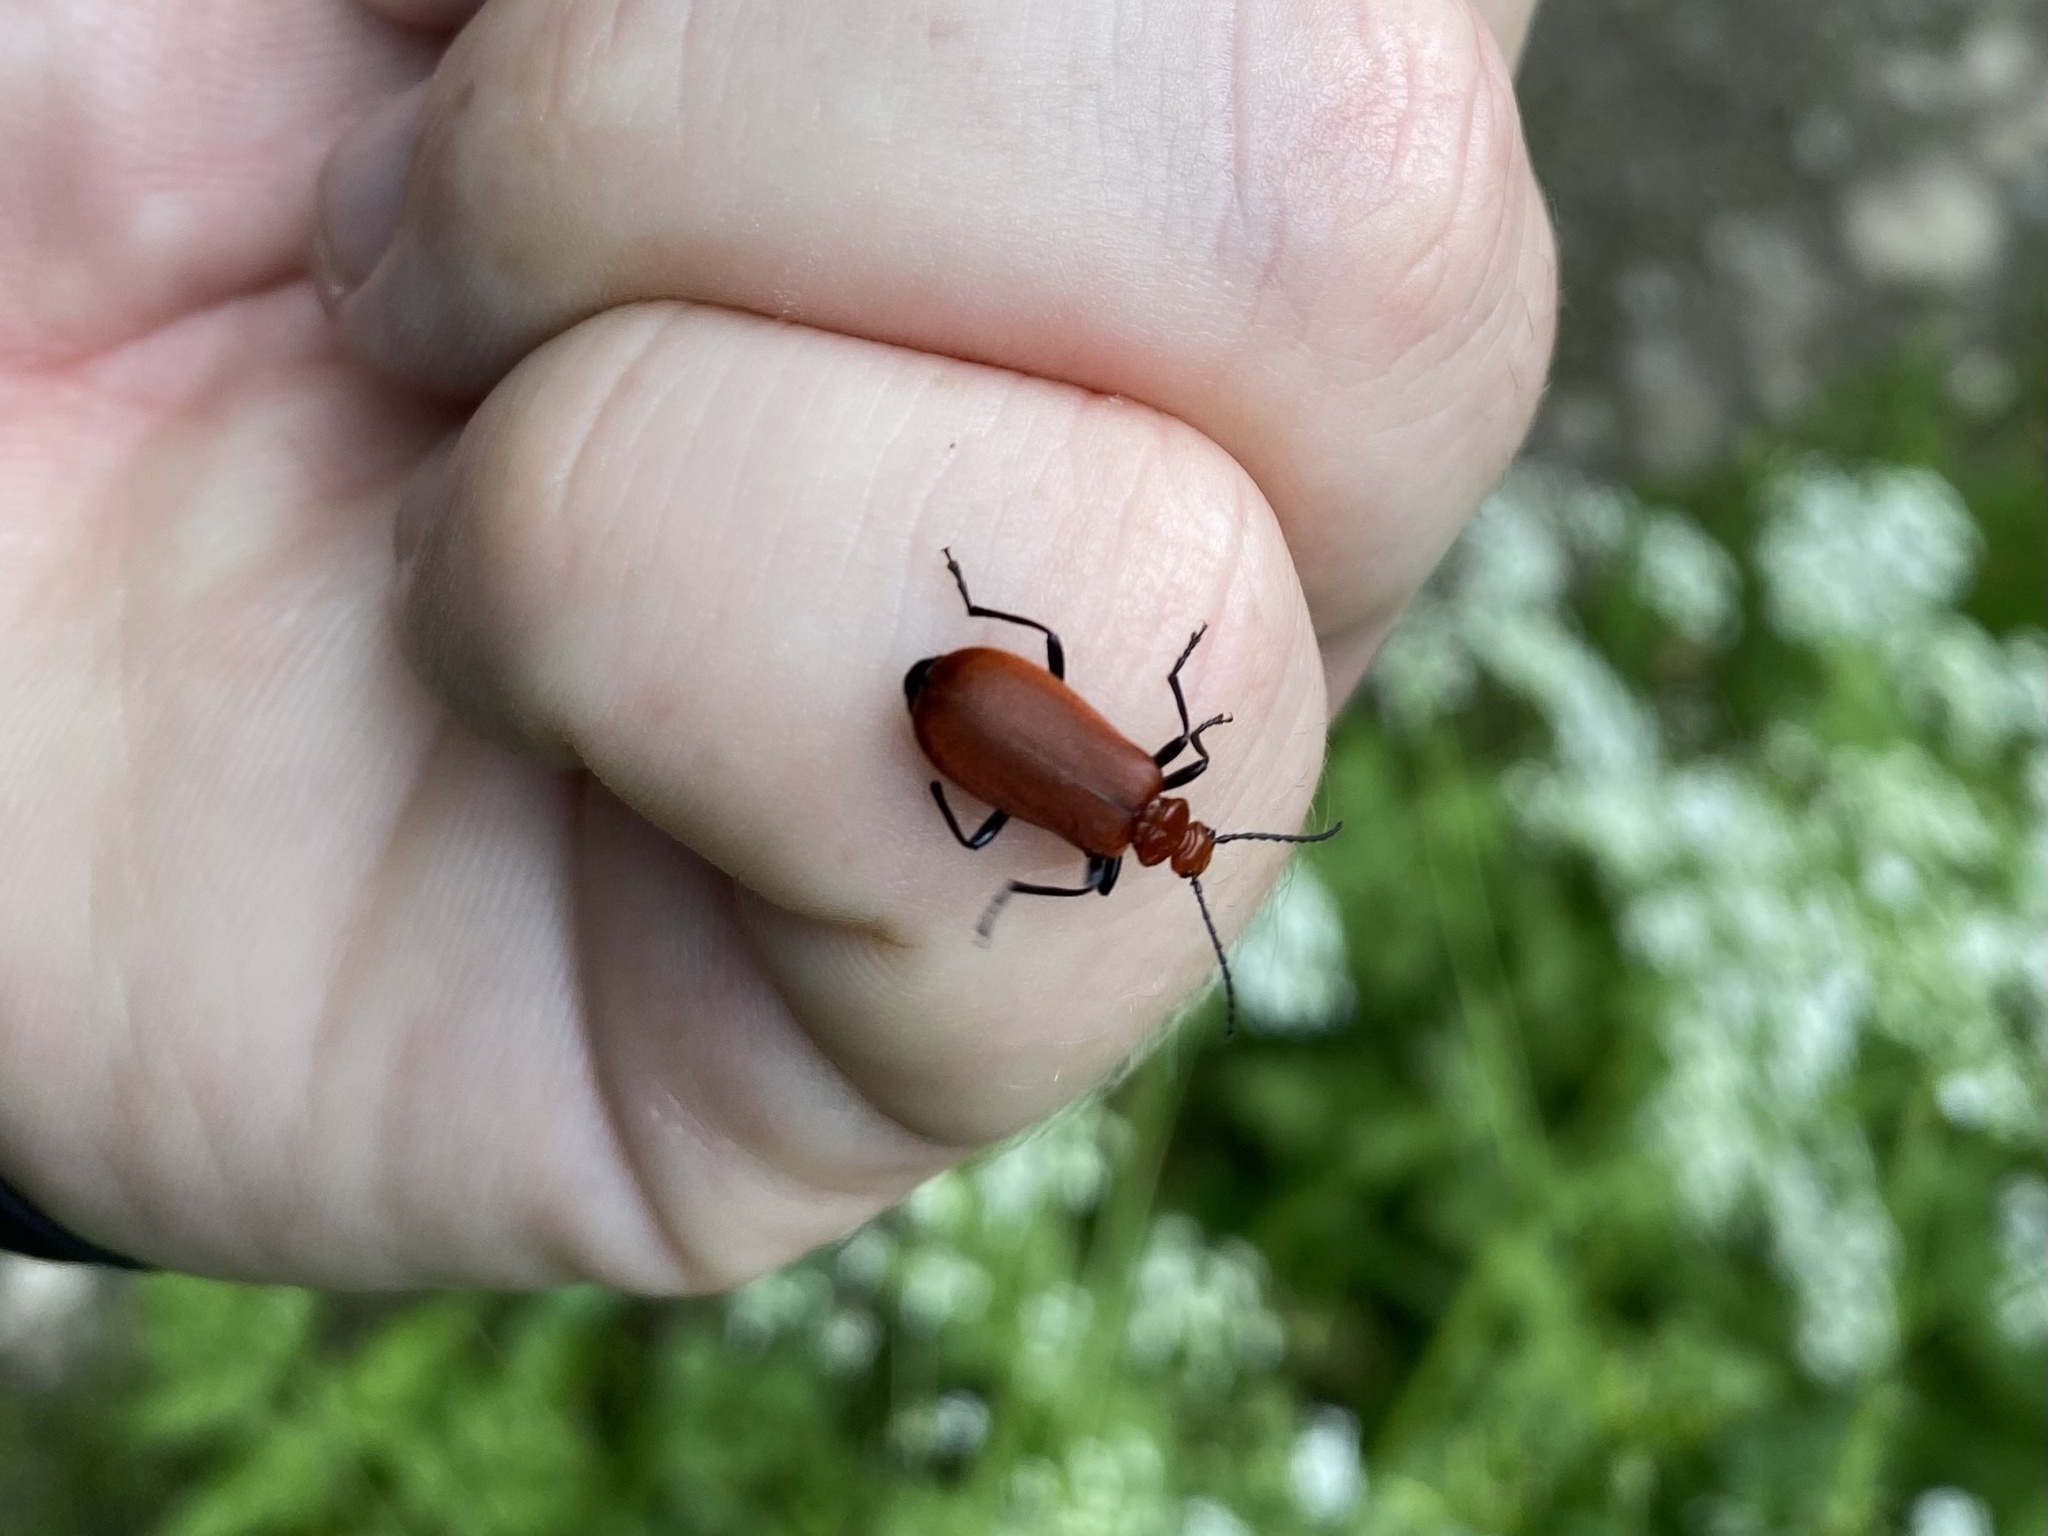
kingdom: Animalia
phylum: Arthropoda
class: Insecta
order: Coleoptera
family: Pyrochroidae
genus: Pyrochroa
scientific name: Pyrochroa serraticornis
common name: Red-headed cardinal beetle
